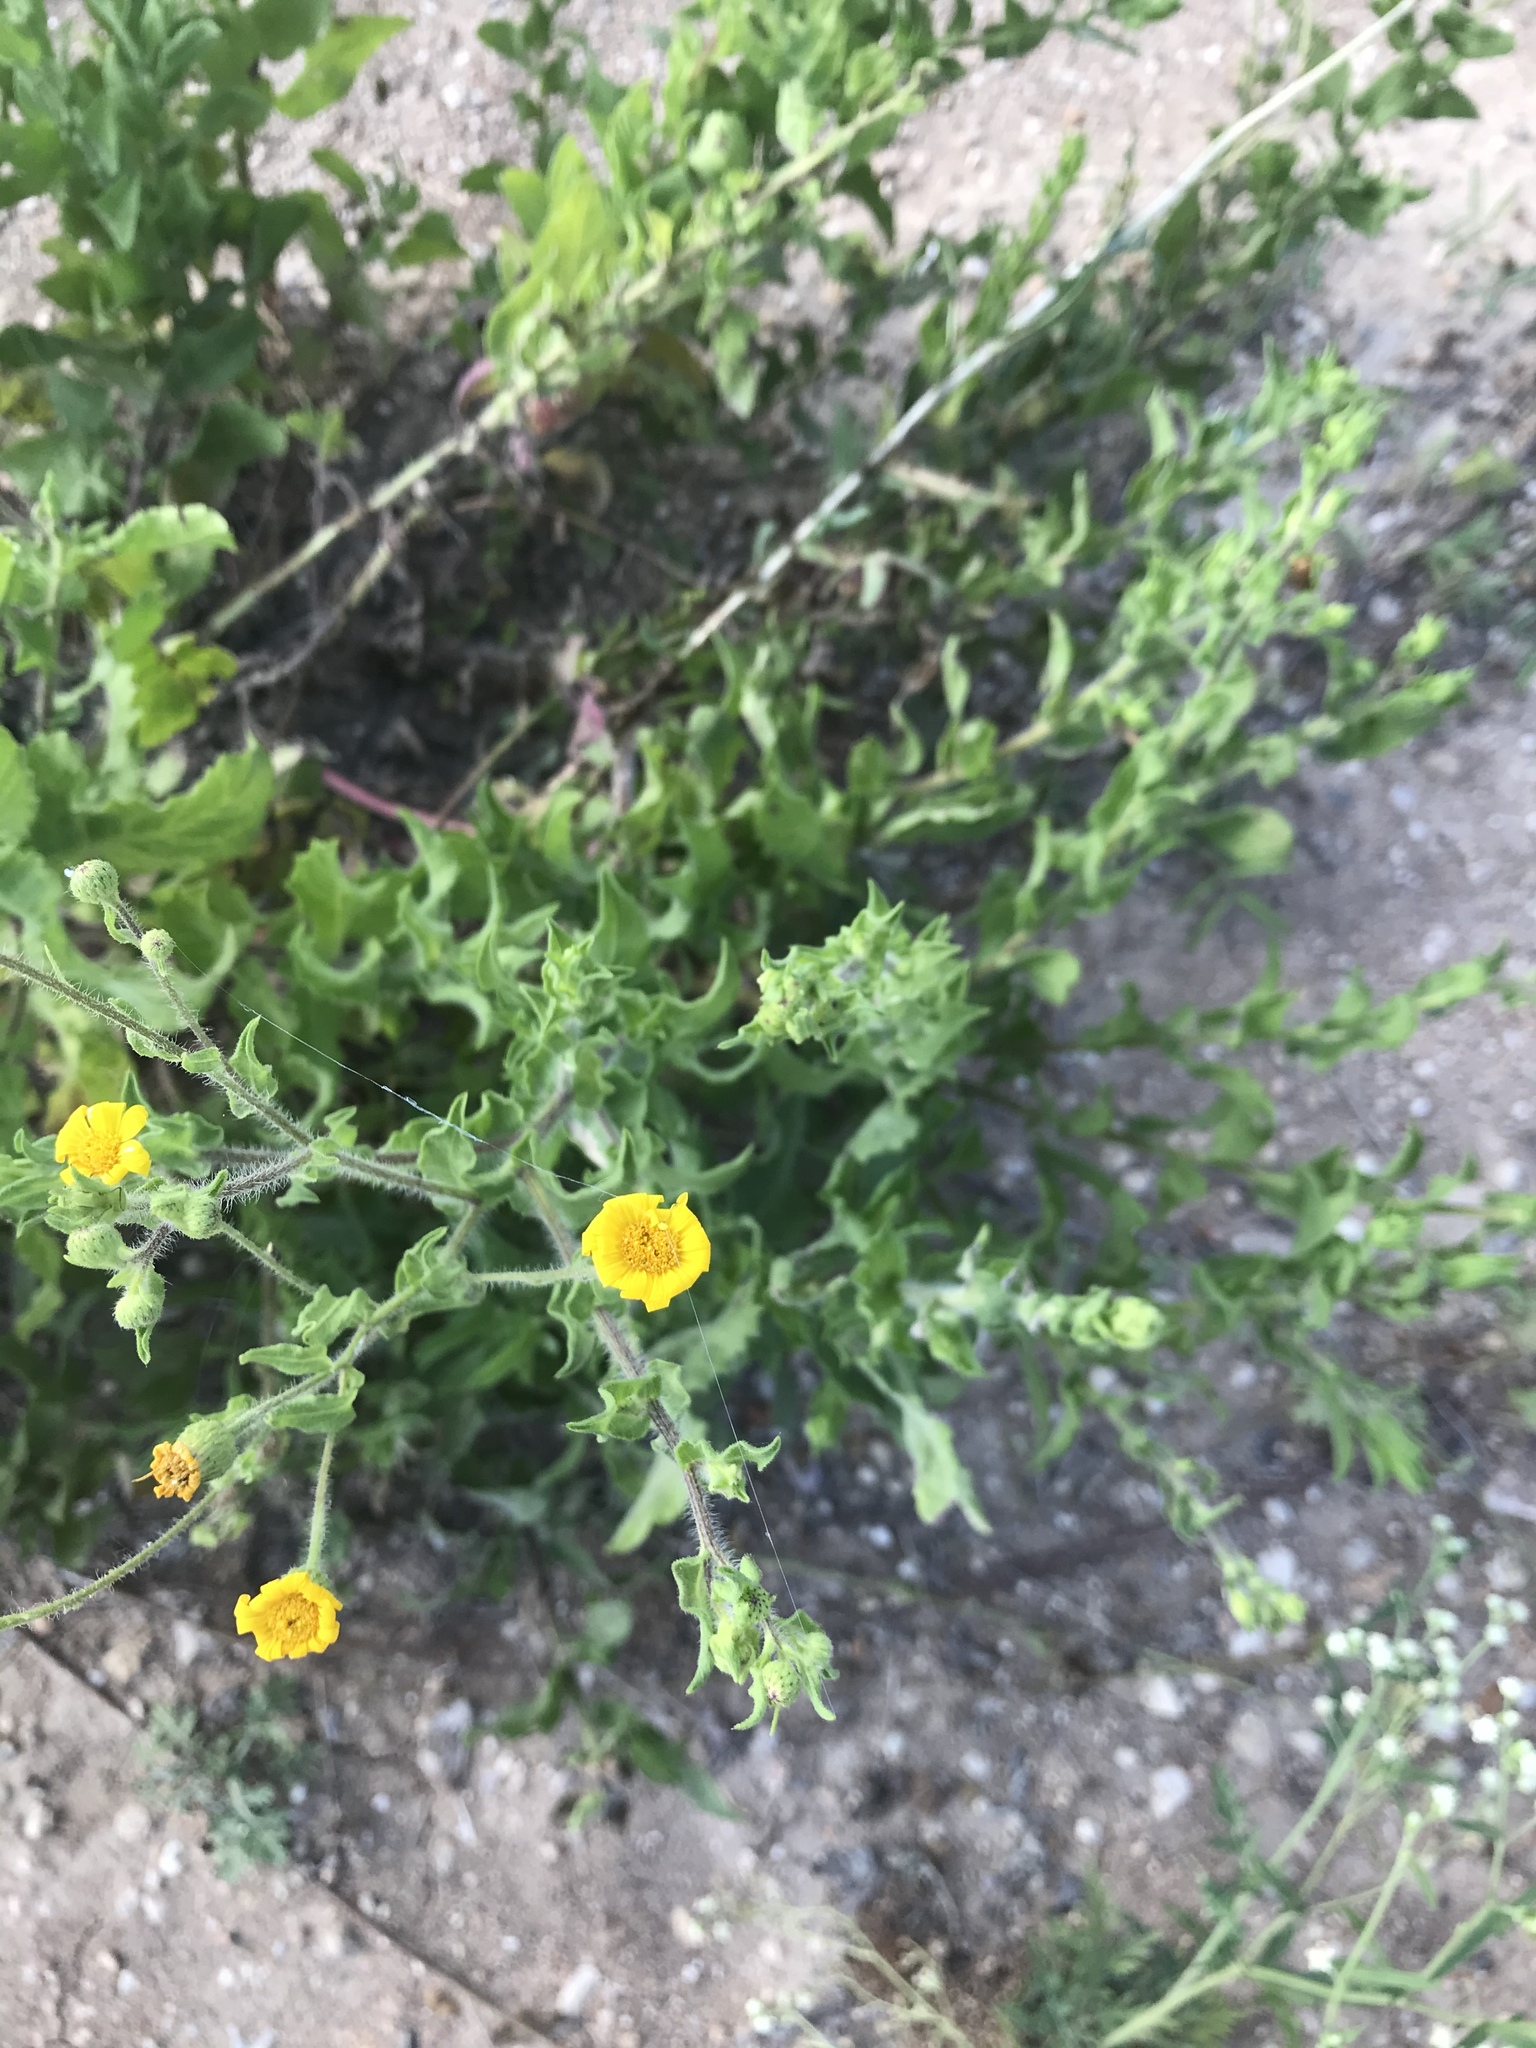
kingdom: Plantae
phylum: Tracheophyta
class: Magnoliopsida
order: Asterales
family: Asteraceae
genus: Heterotheca
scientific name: Heterotheca subaxillaris
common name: Camphorweed
